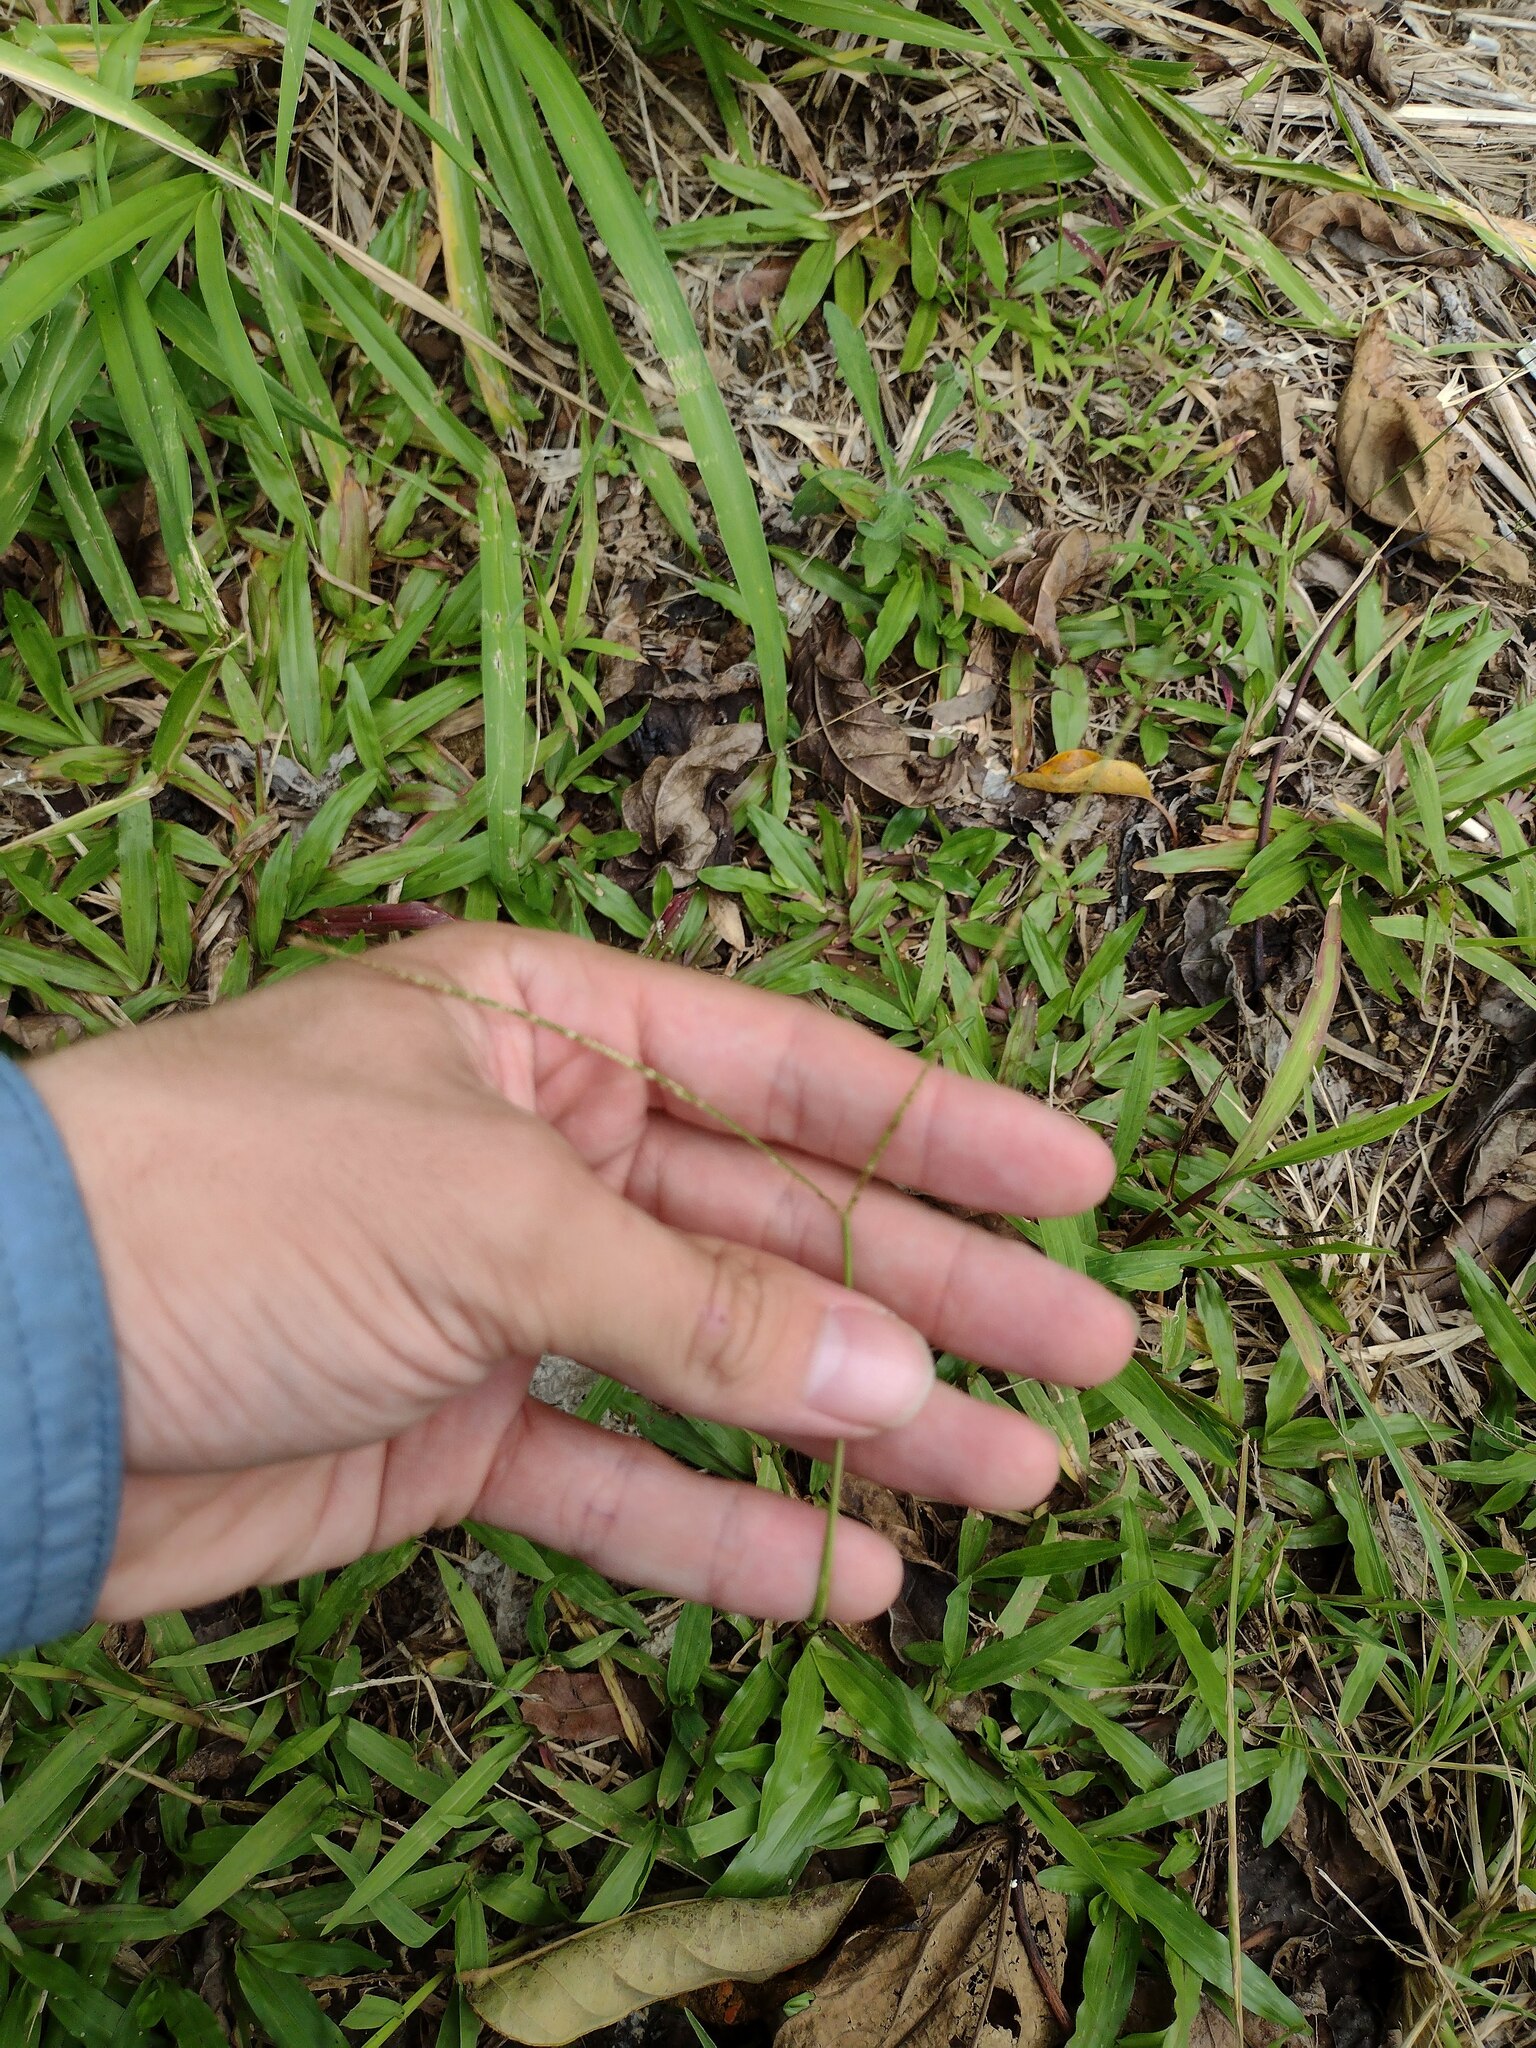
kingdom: Plantae
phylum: Tracheophyta
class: Liliopsida
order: Poales
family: Poaceae
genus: Paspalum
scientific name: Paspalum conjugatum
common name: Hilograss
